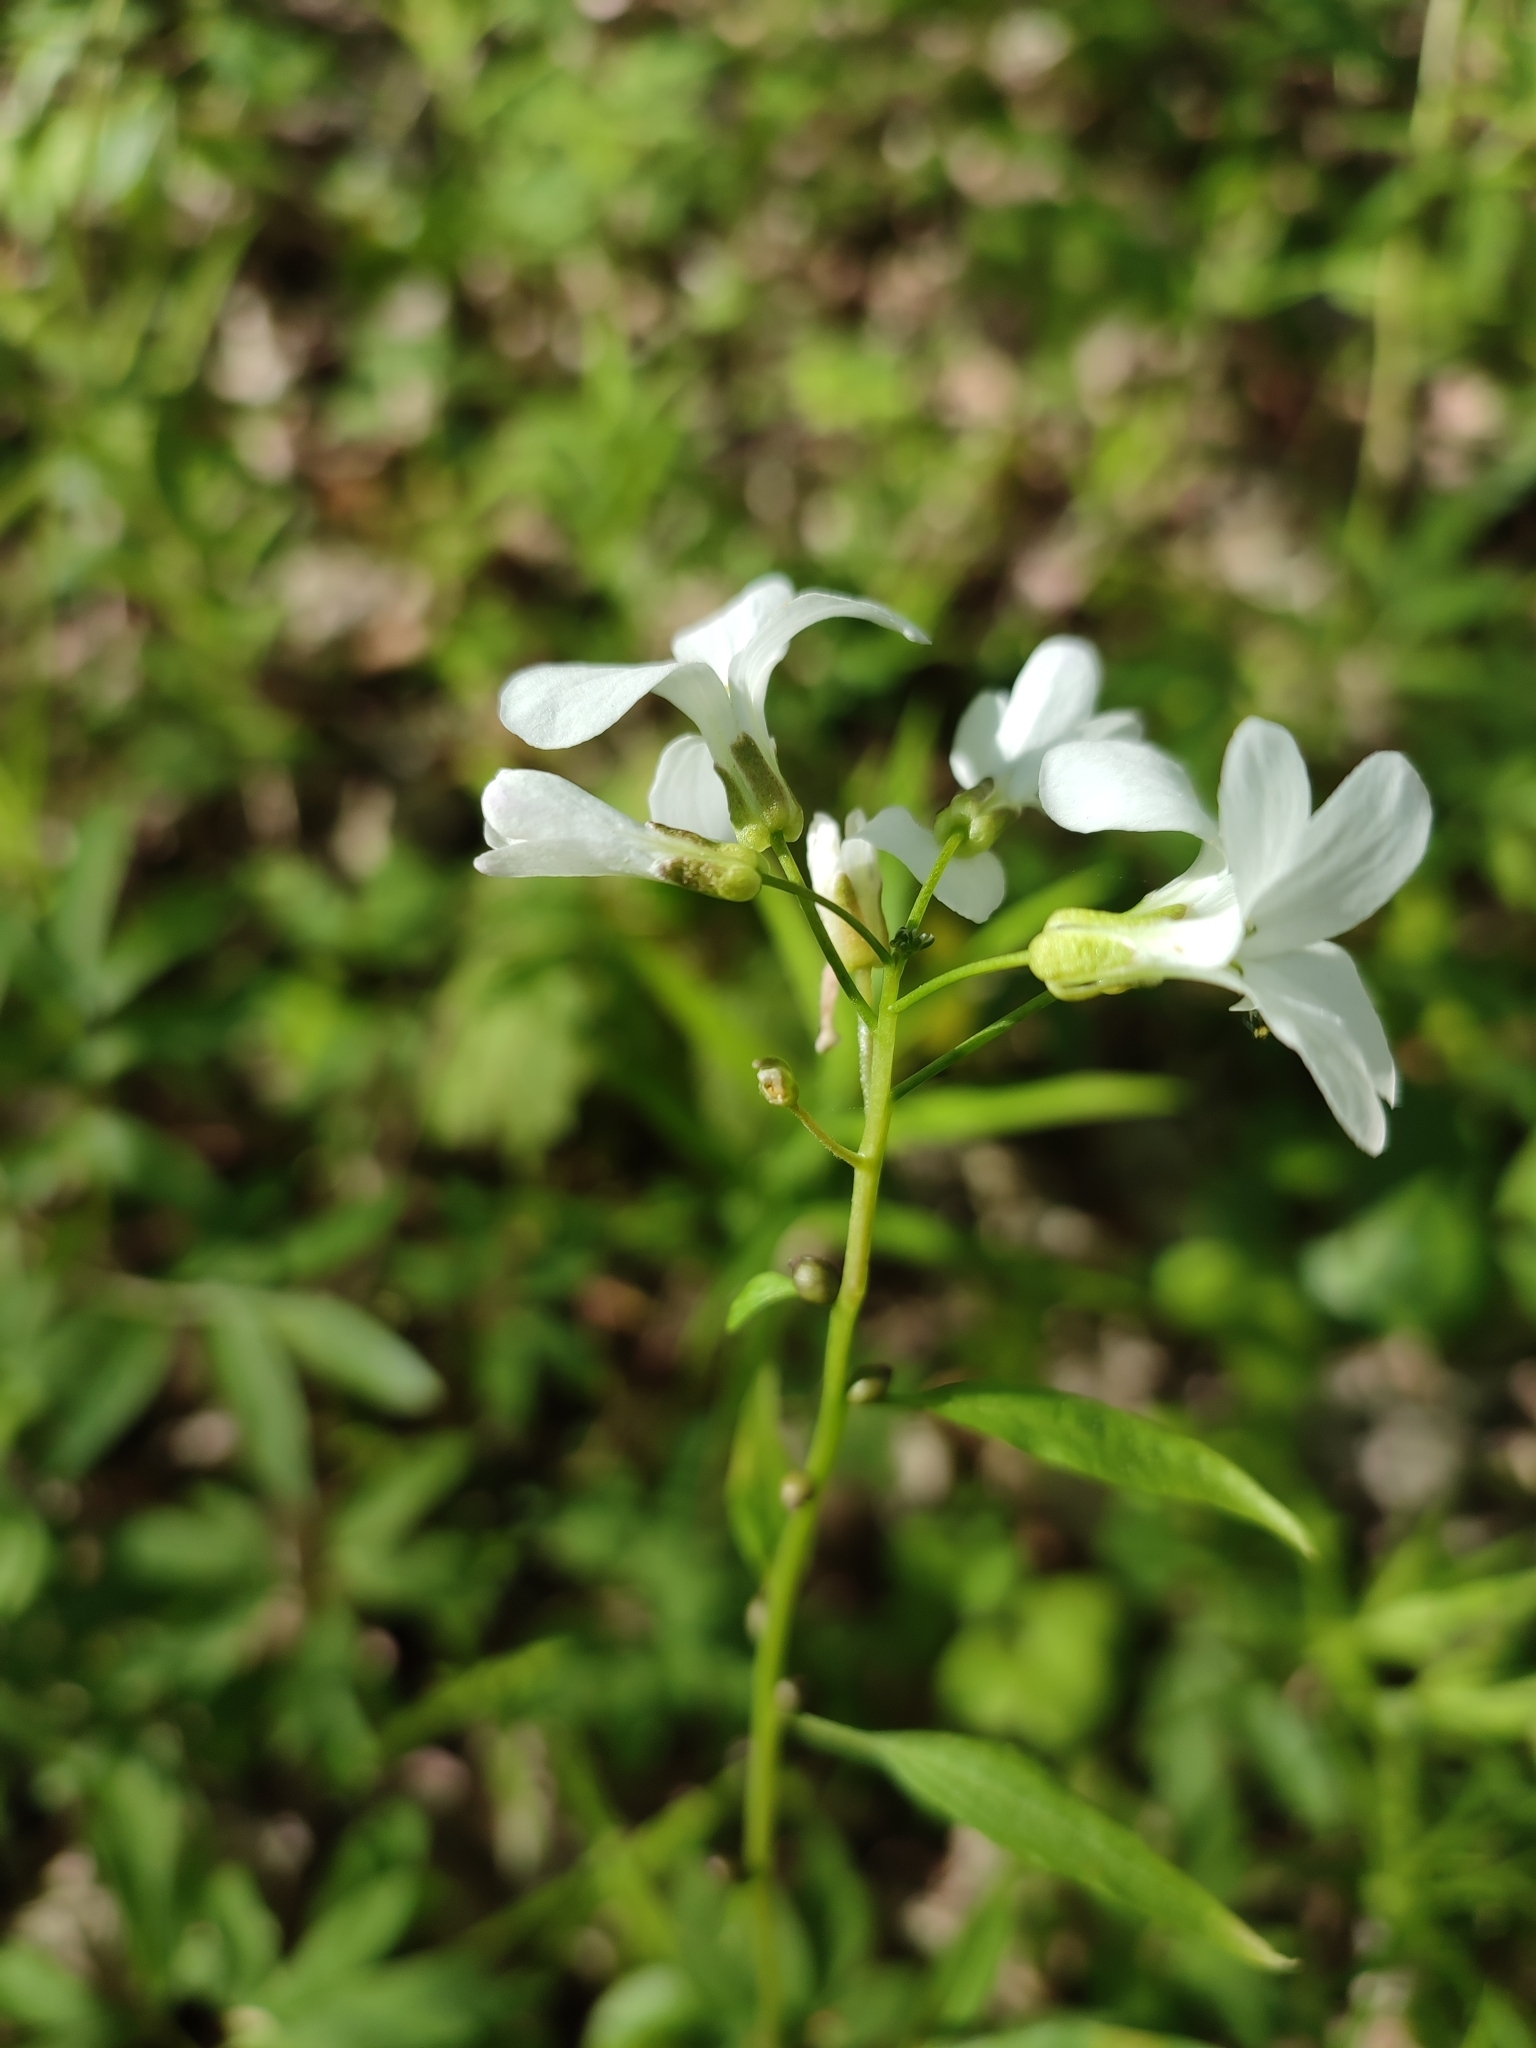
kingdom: Plantae
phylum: Tracheophyta
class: Magnoliopsida
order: Brassicales
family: Brassicaceae
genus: Cardamine
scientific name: Cardamine bulbifera
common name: Coralroot bittercress
